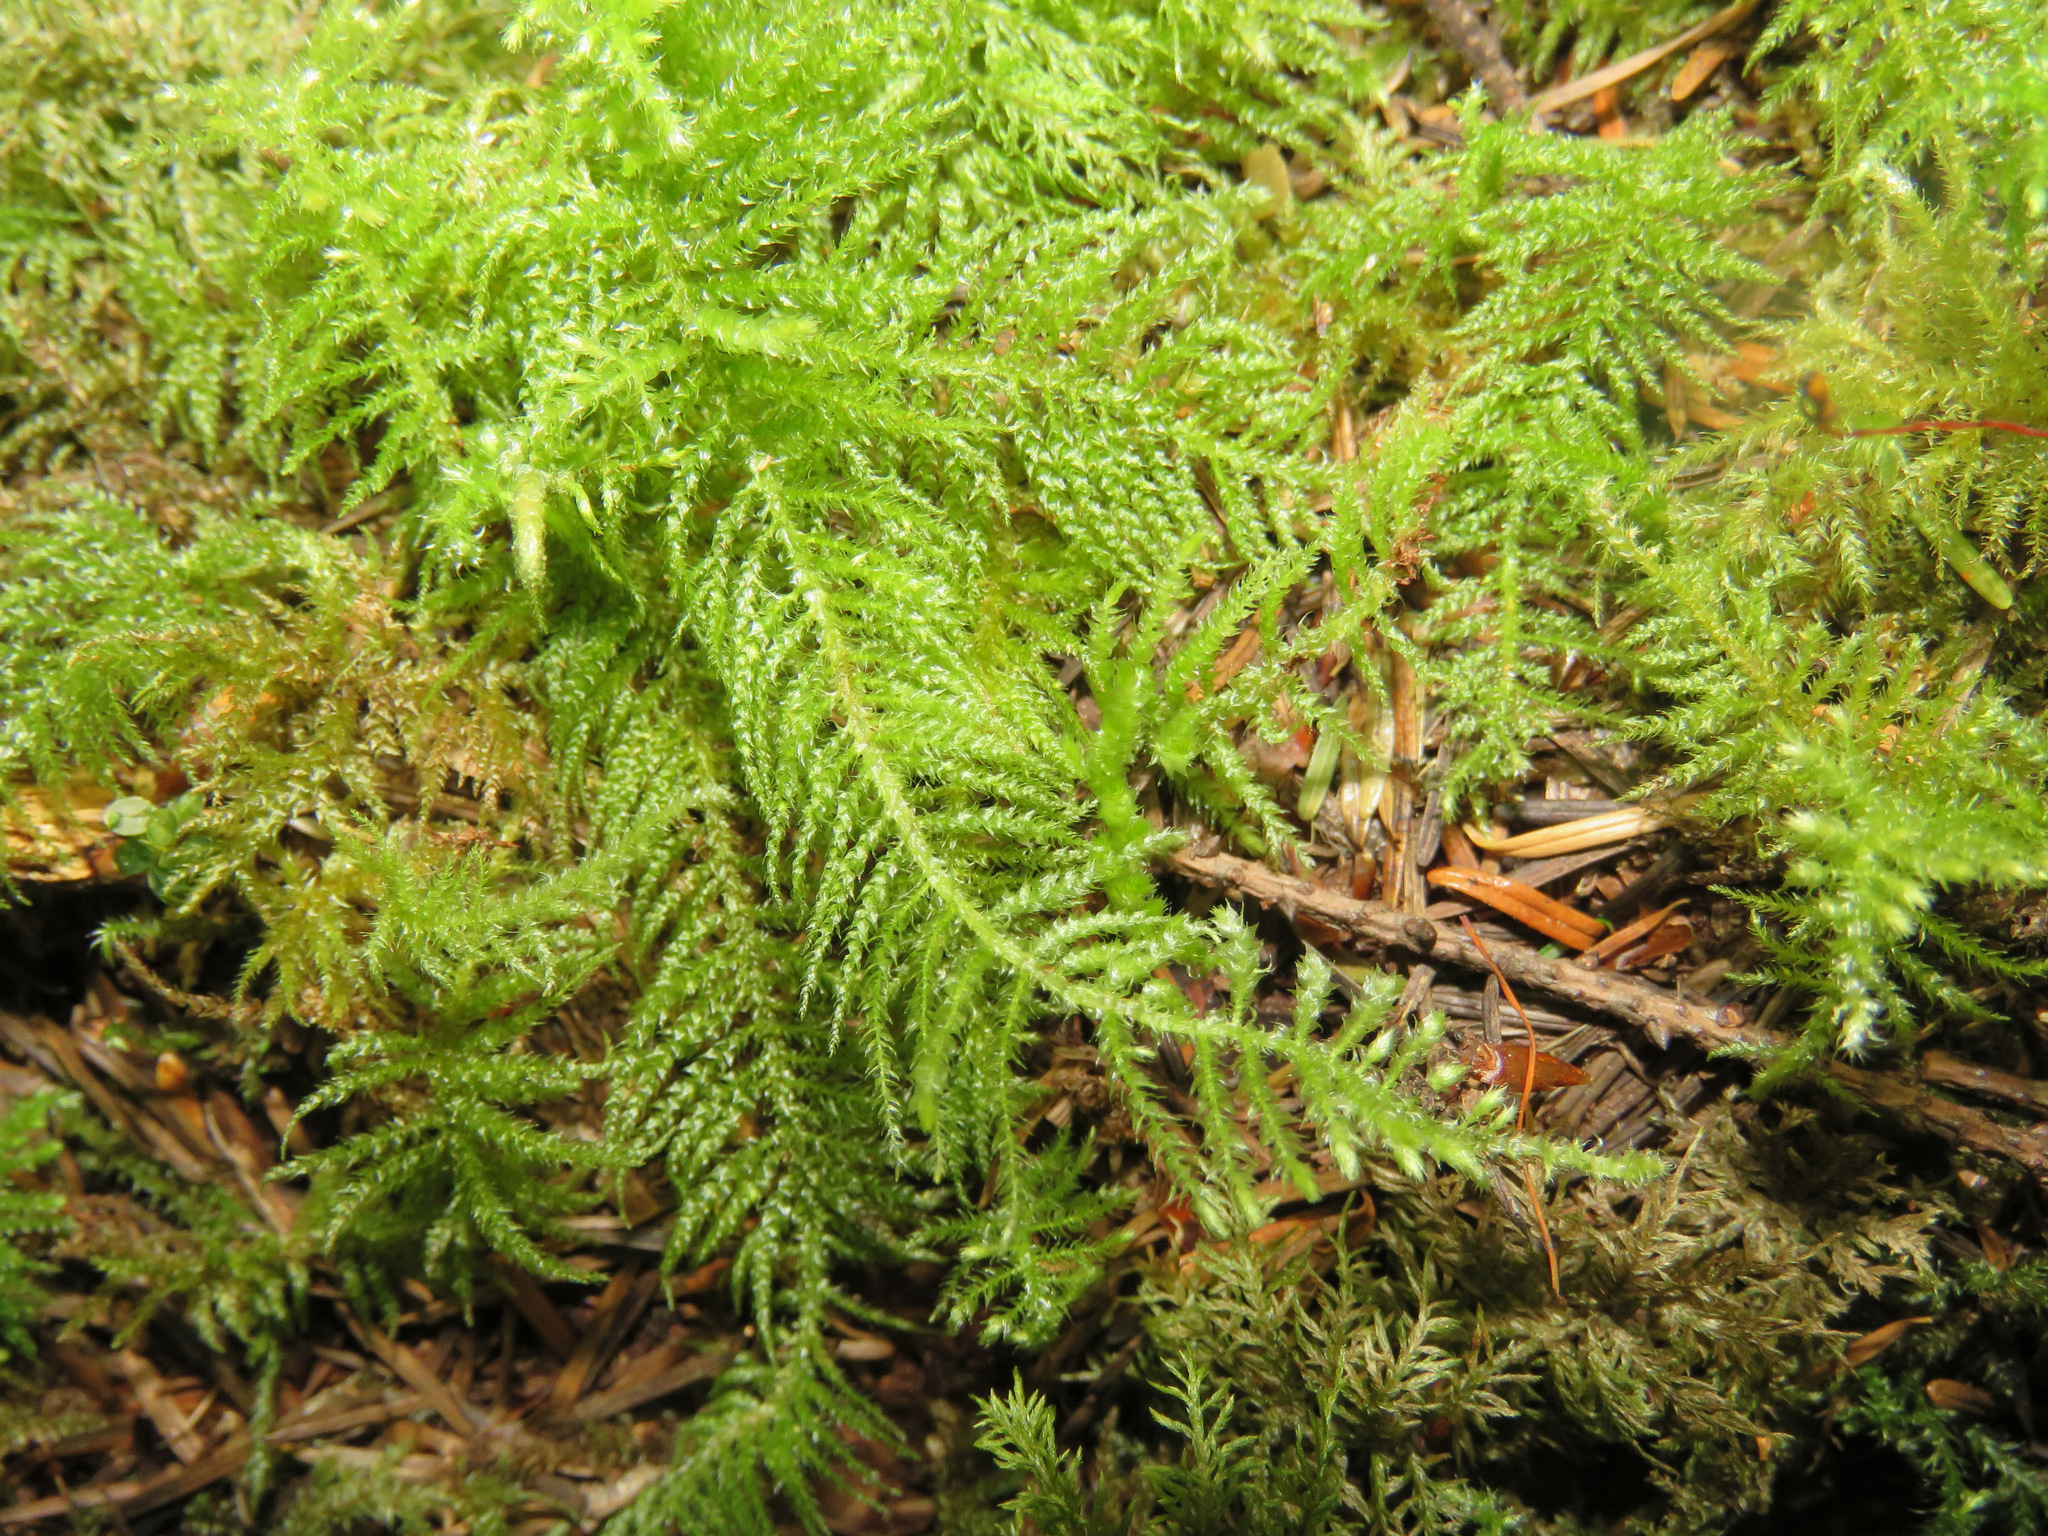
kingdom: Plantae
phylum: Bryophyta
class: Bryopsida
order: Hypnales
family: Brachytheciaceae
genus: Kindbergia
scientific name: Kindbergia oregana
